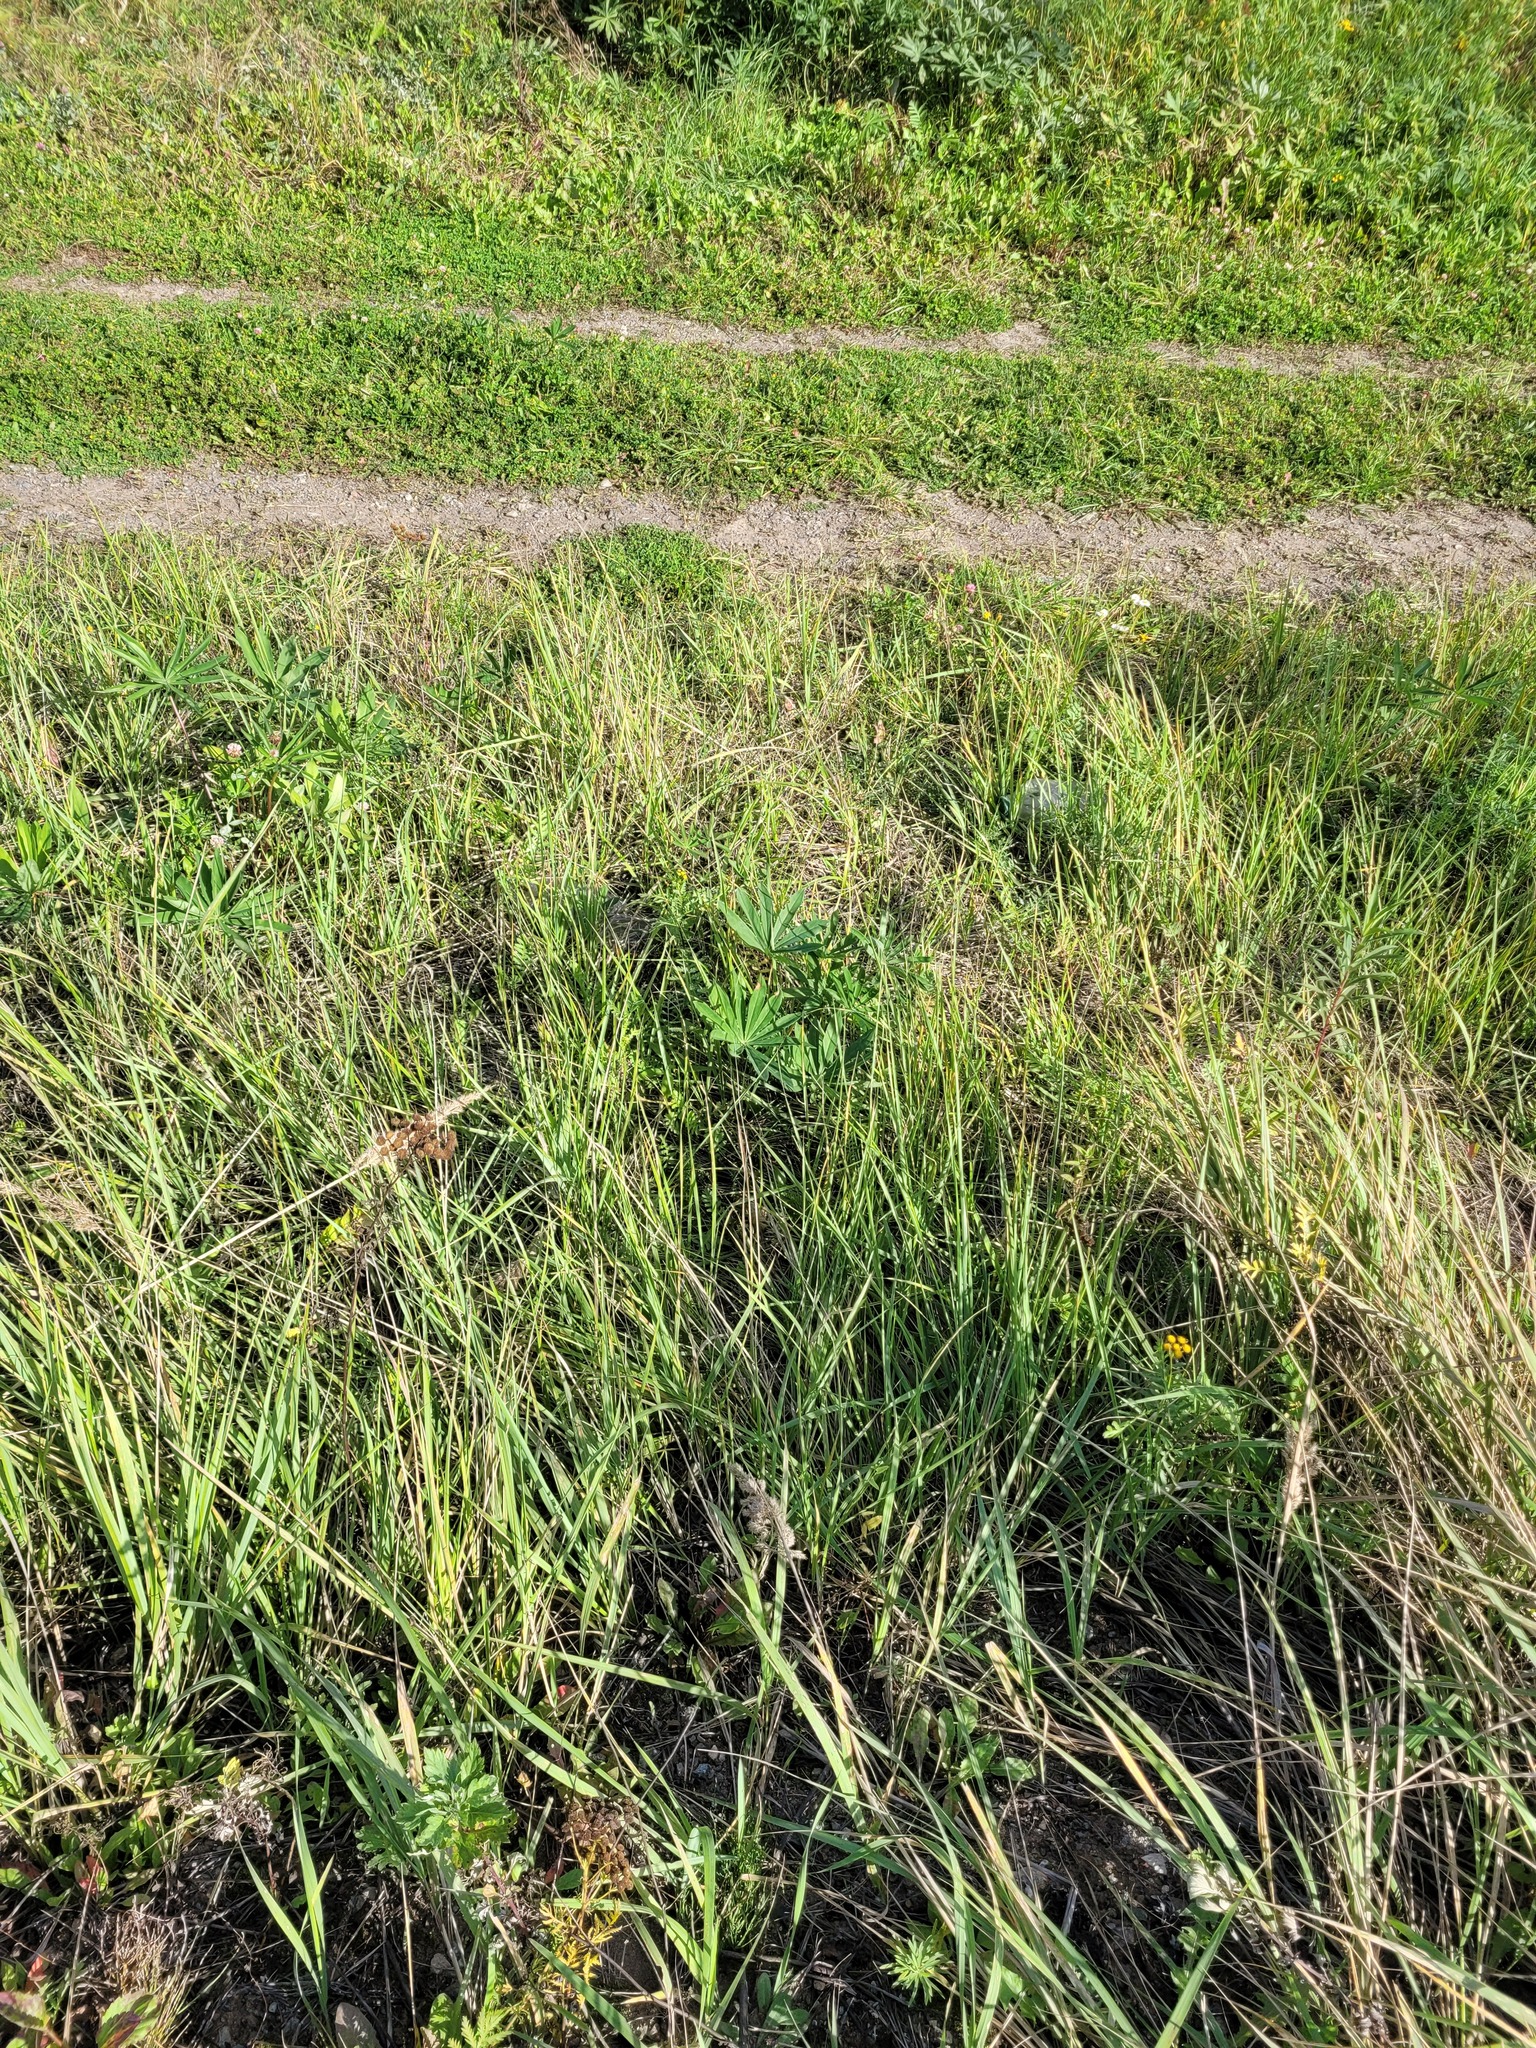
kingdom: Plantae
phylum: Tracheophyta
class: Magnoliopsida
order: Fabales
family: Fabaceae
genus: Lupinus
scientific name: Lupinus polyphyllus
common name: Garden lupin
